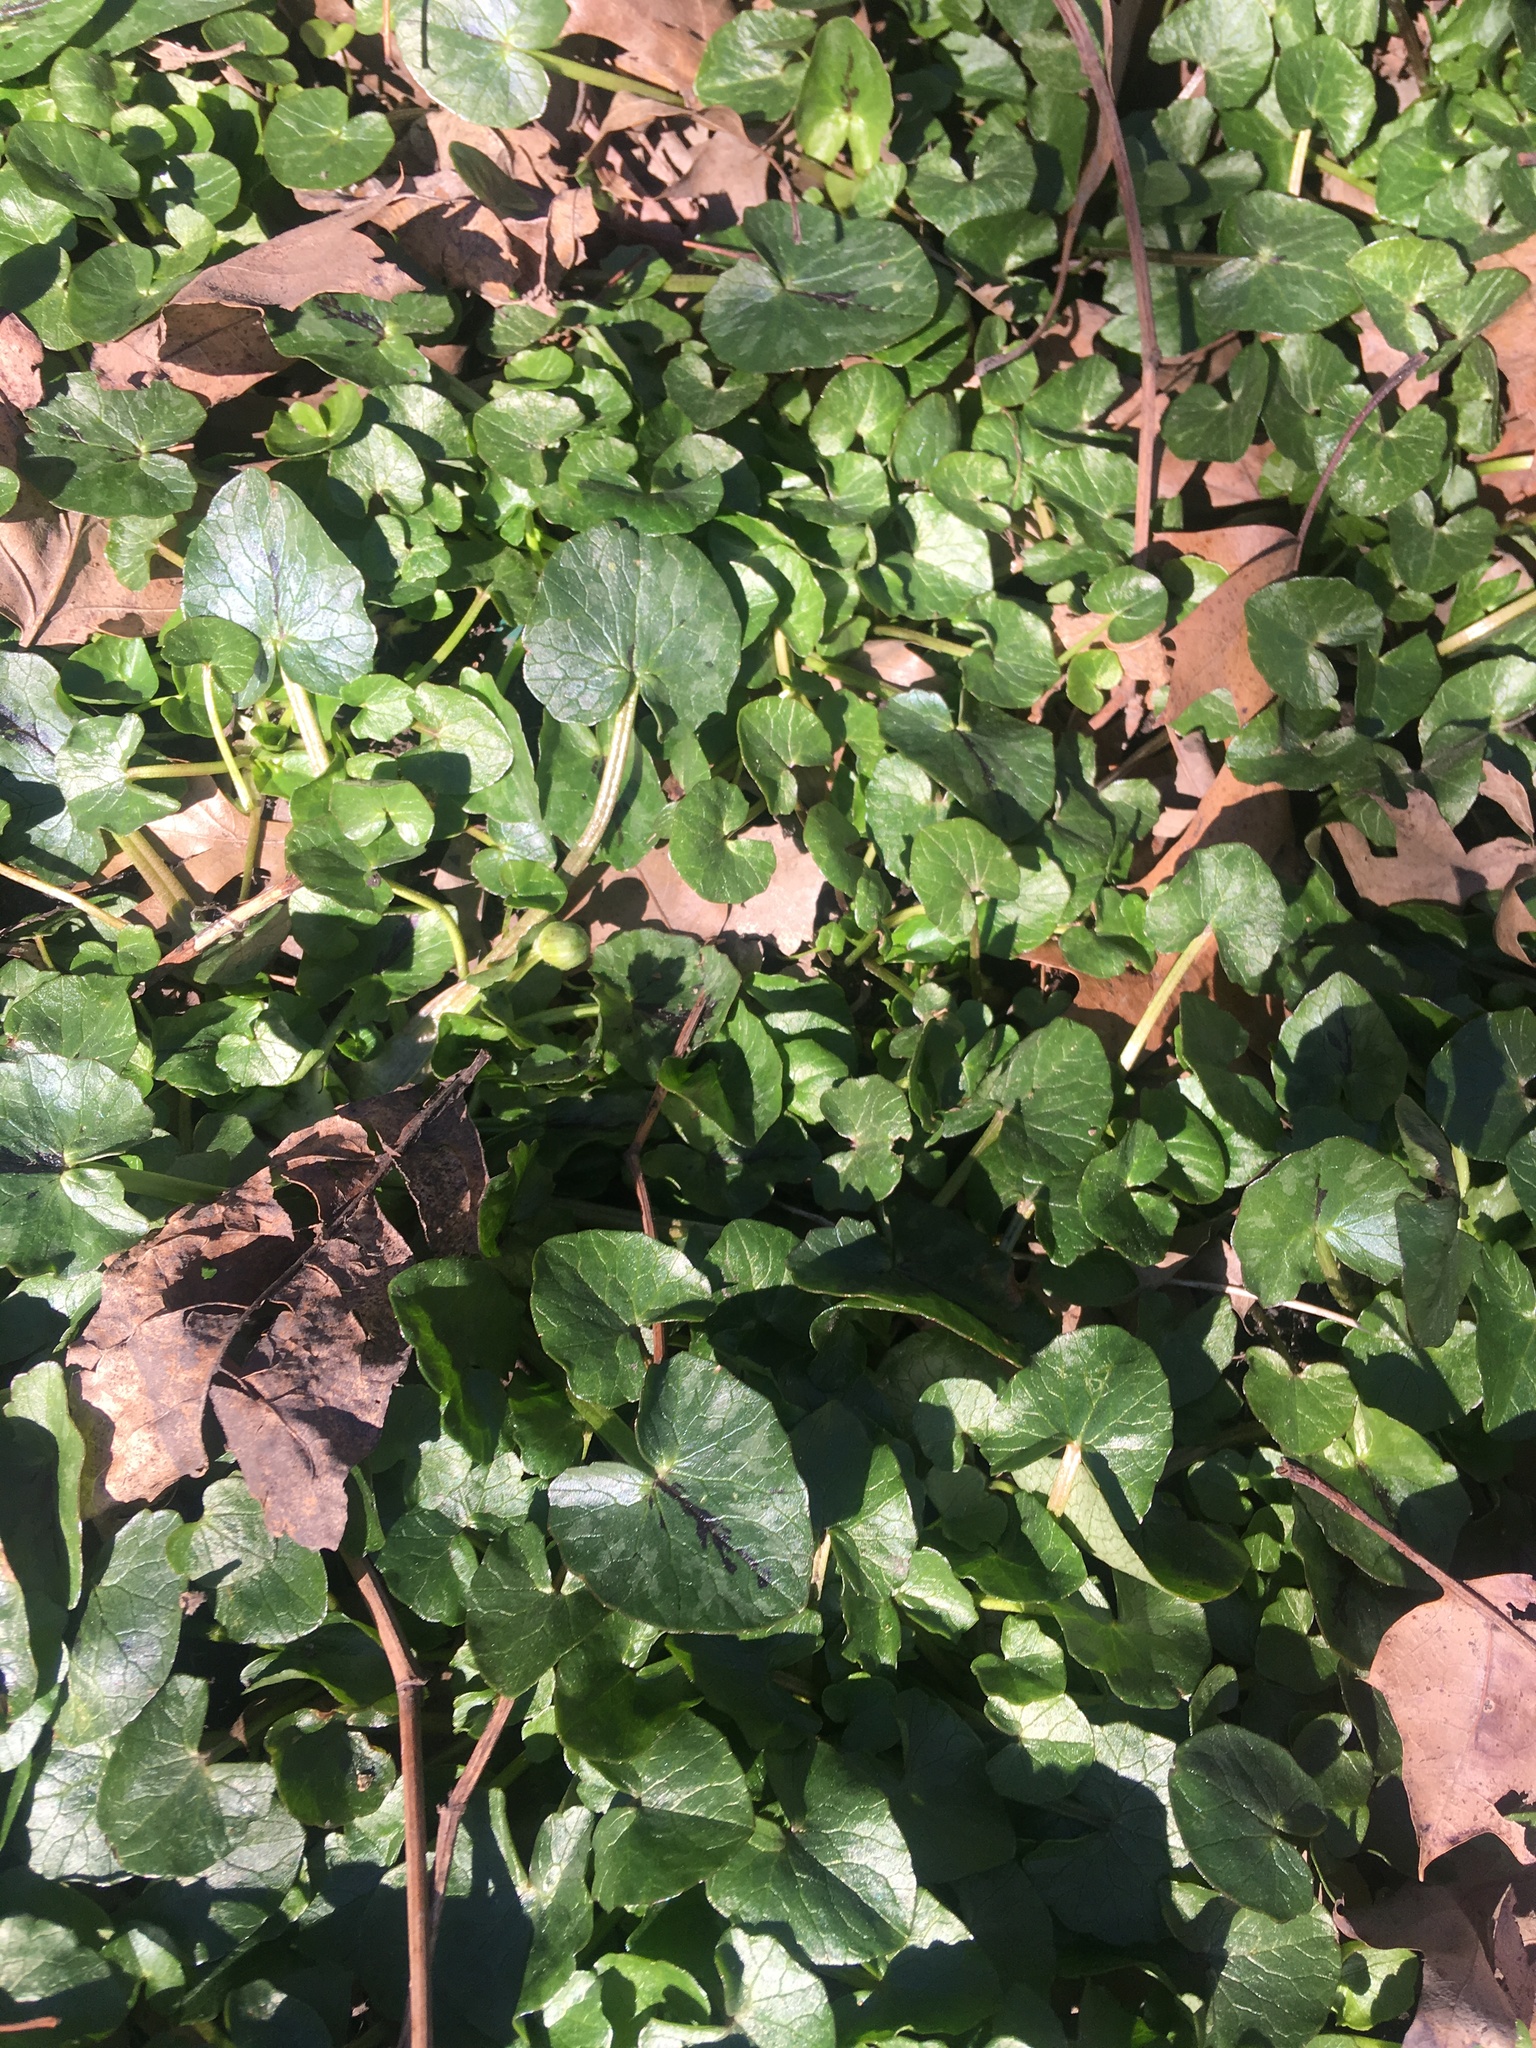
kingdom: Plantae
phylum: Tracheophyta
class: Magnoliopsida
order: Ranunculales
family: Ranunculaceae
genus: Ficaria
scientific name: Ficaria verna
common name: Lesser celandine
